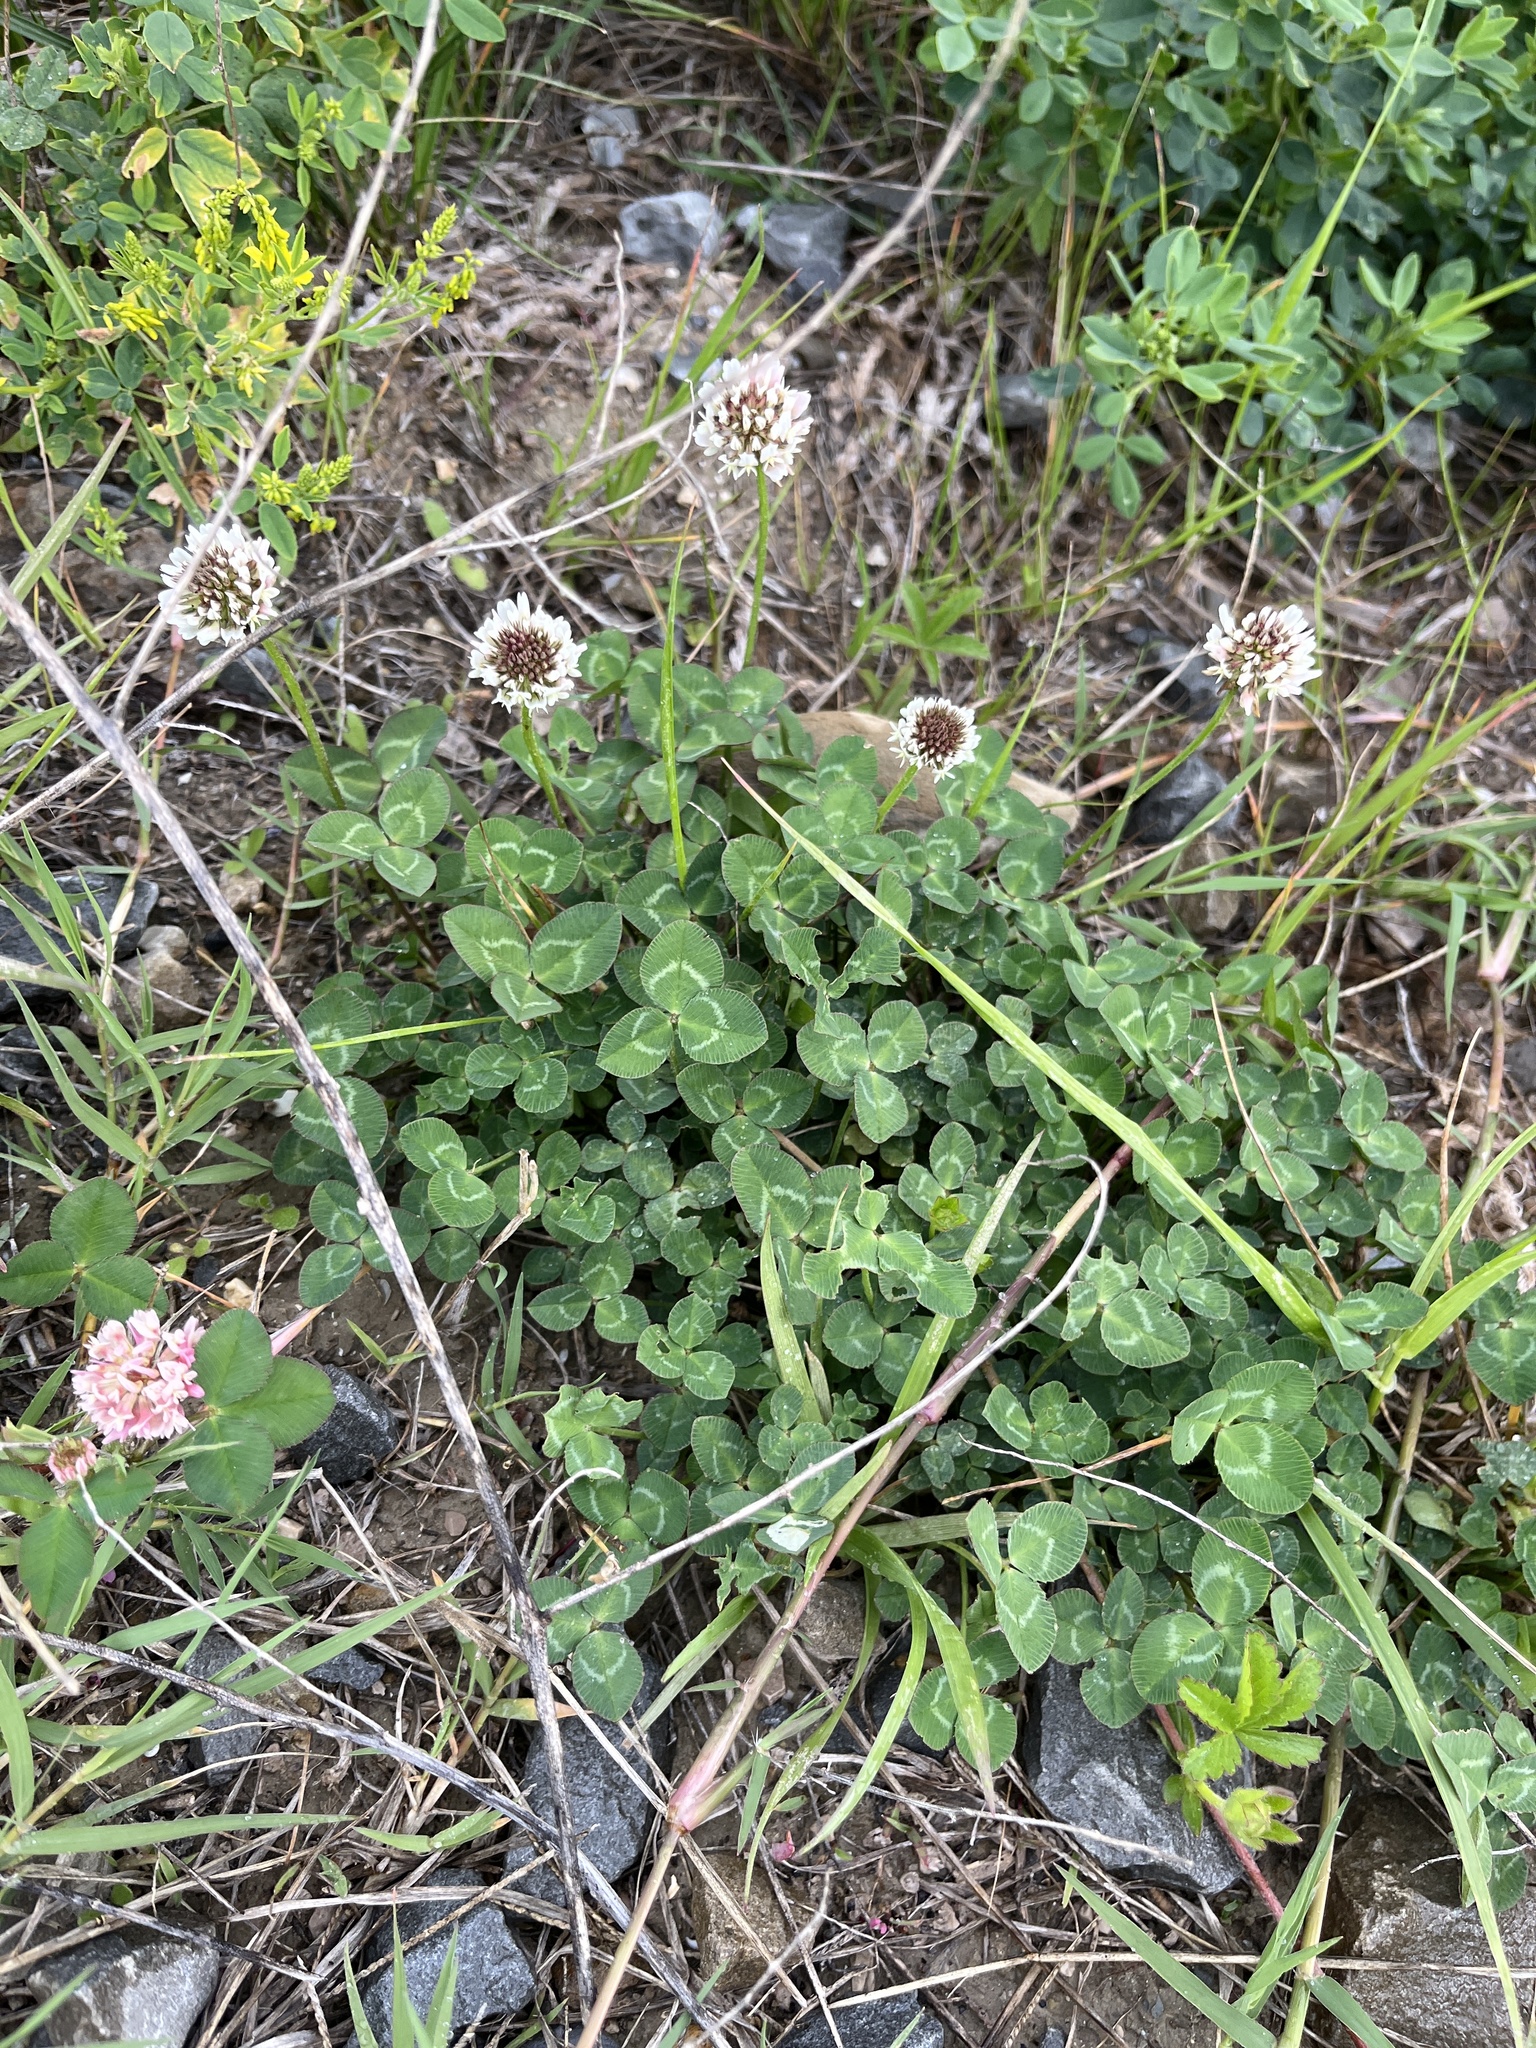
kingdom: Plantae
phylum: Tracheophyta
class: Magnoliopsida
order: Fabales
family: Fabaceae
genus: Trifolium
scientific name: Trifolium repens
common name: White clover
